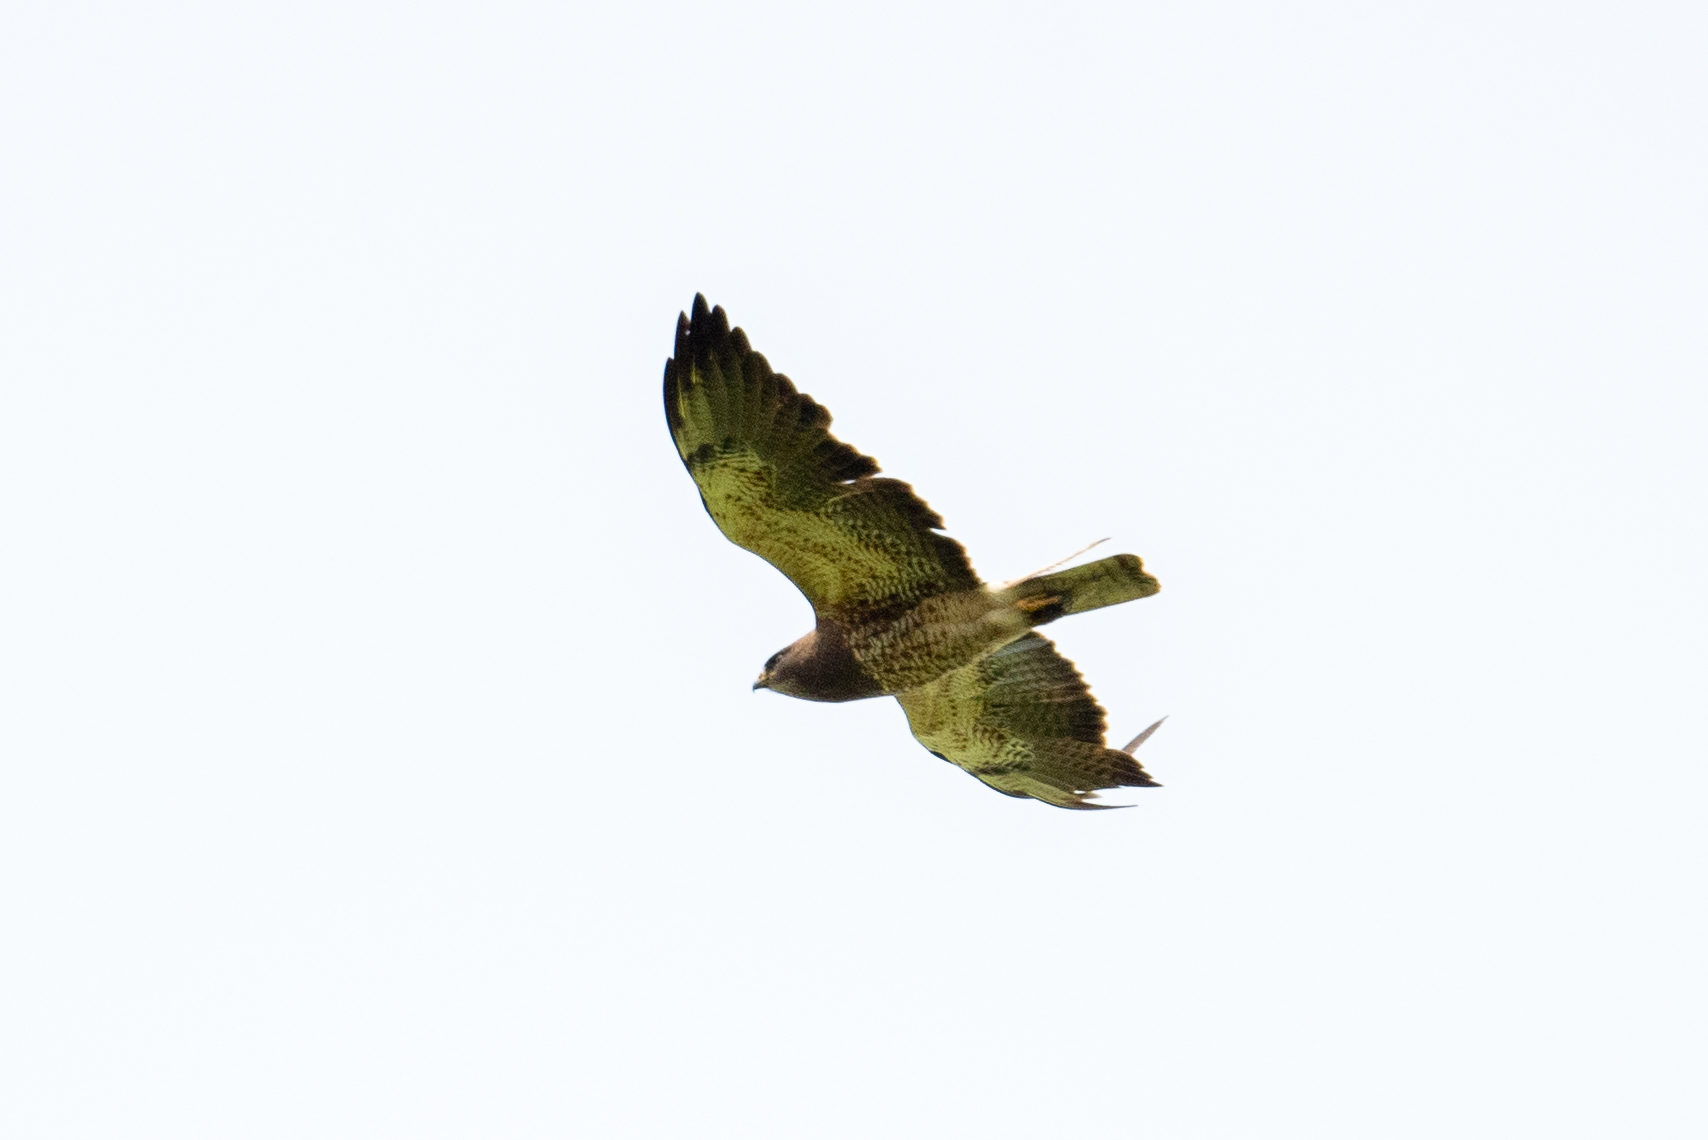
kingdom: Animalia
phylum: Chordata
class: Aves
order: Accipitriformes
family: Accipitridae
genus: Buteo
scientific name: Buteo swainsoni
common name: Swainson's hawk
